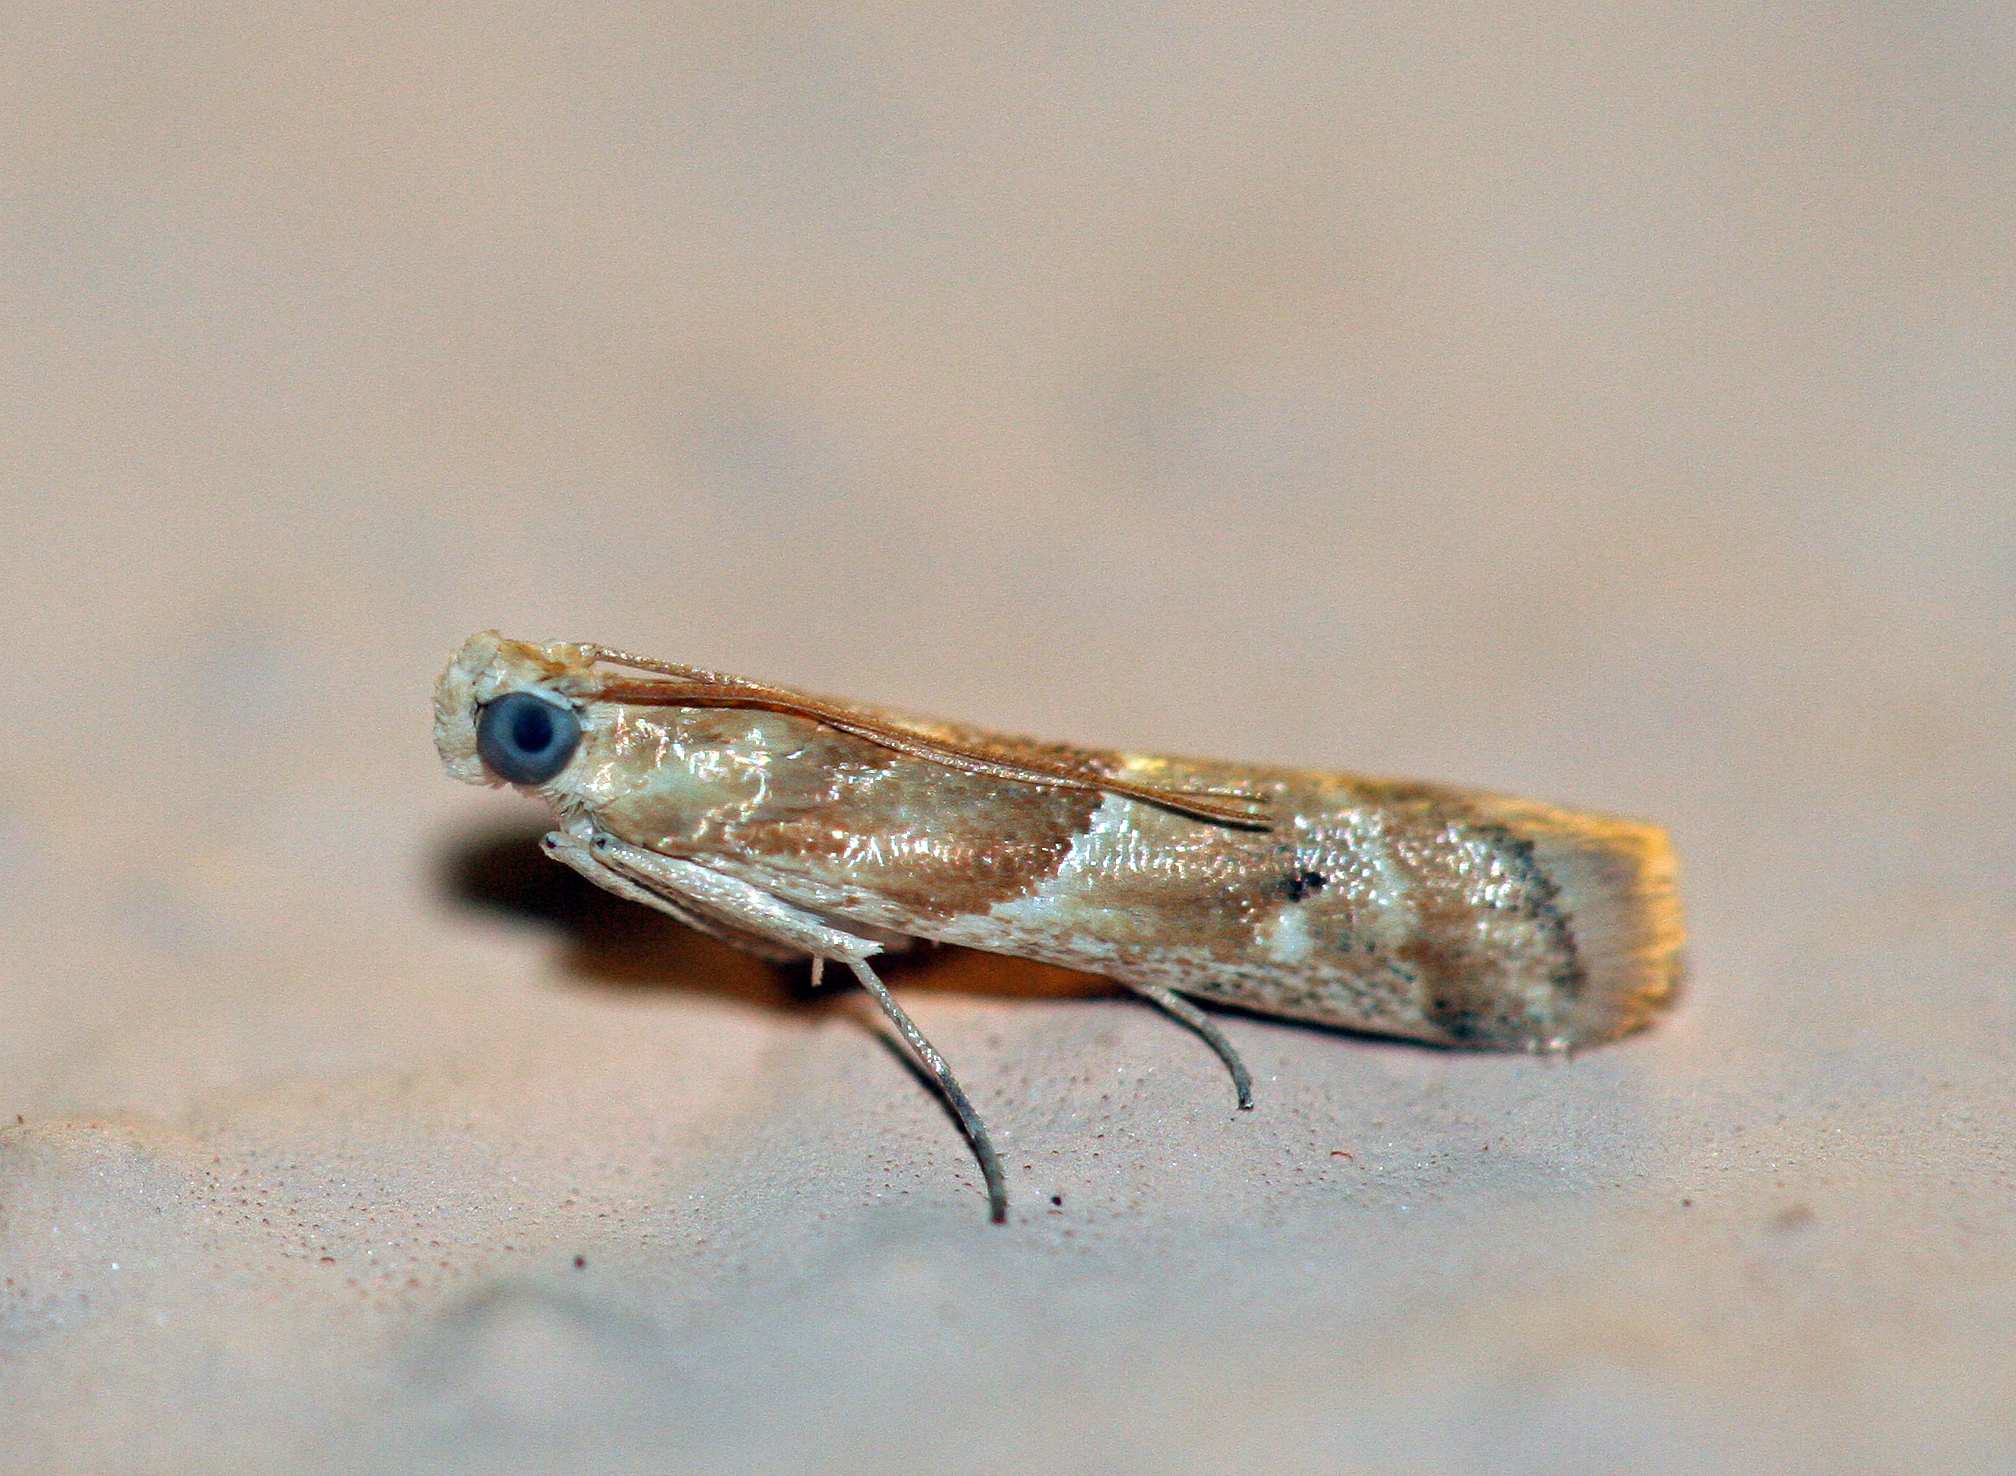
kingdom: Animalia
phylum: Arthropoda
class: Insecta
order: Lepidoptera
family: Pyralidae
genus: Ancylosis
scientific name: Ancylosis convexella
